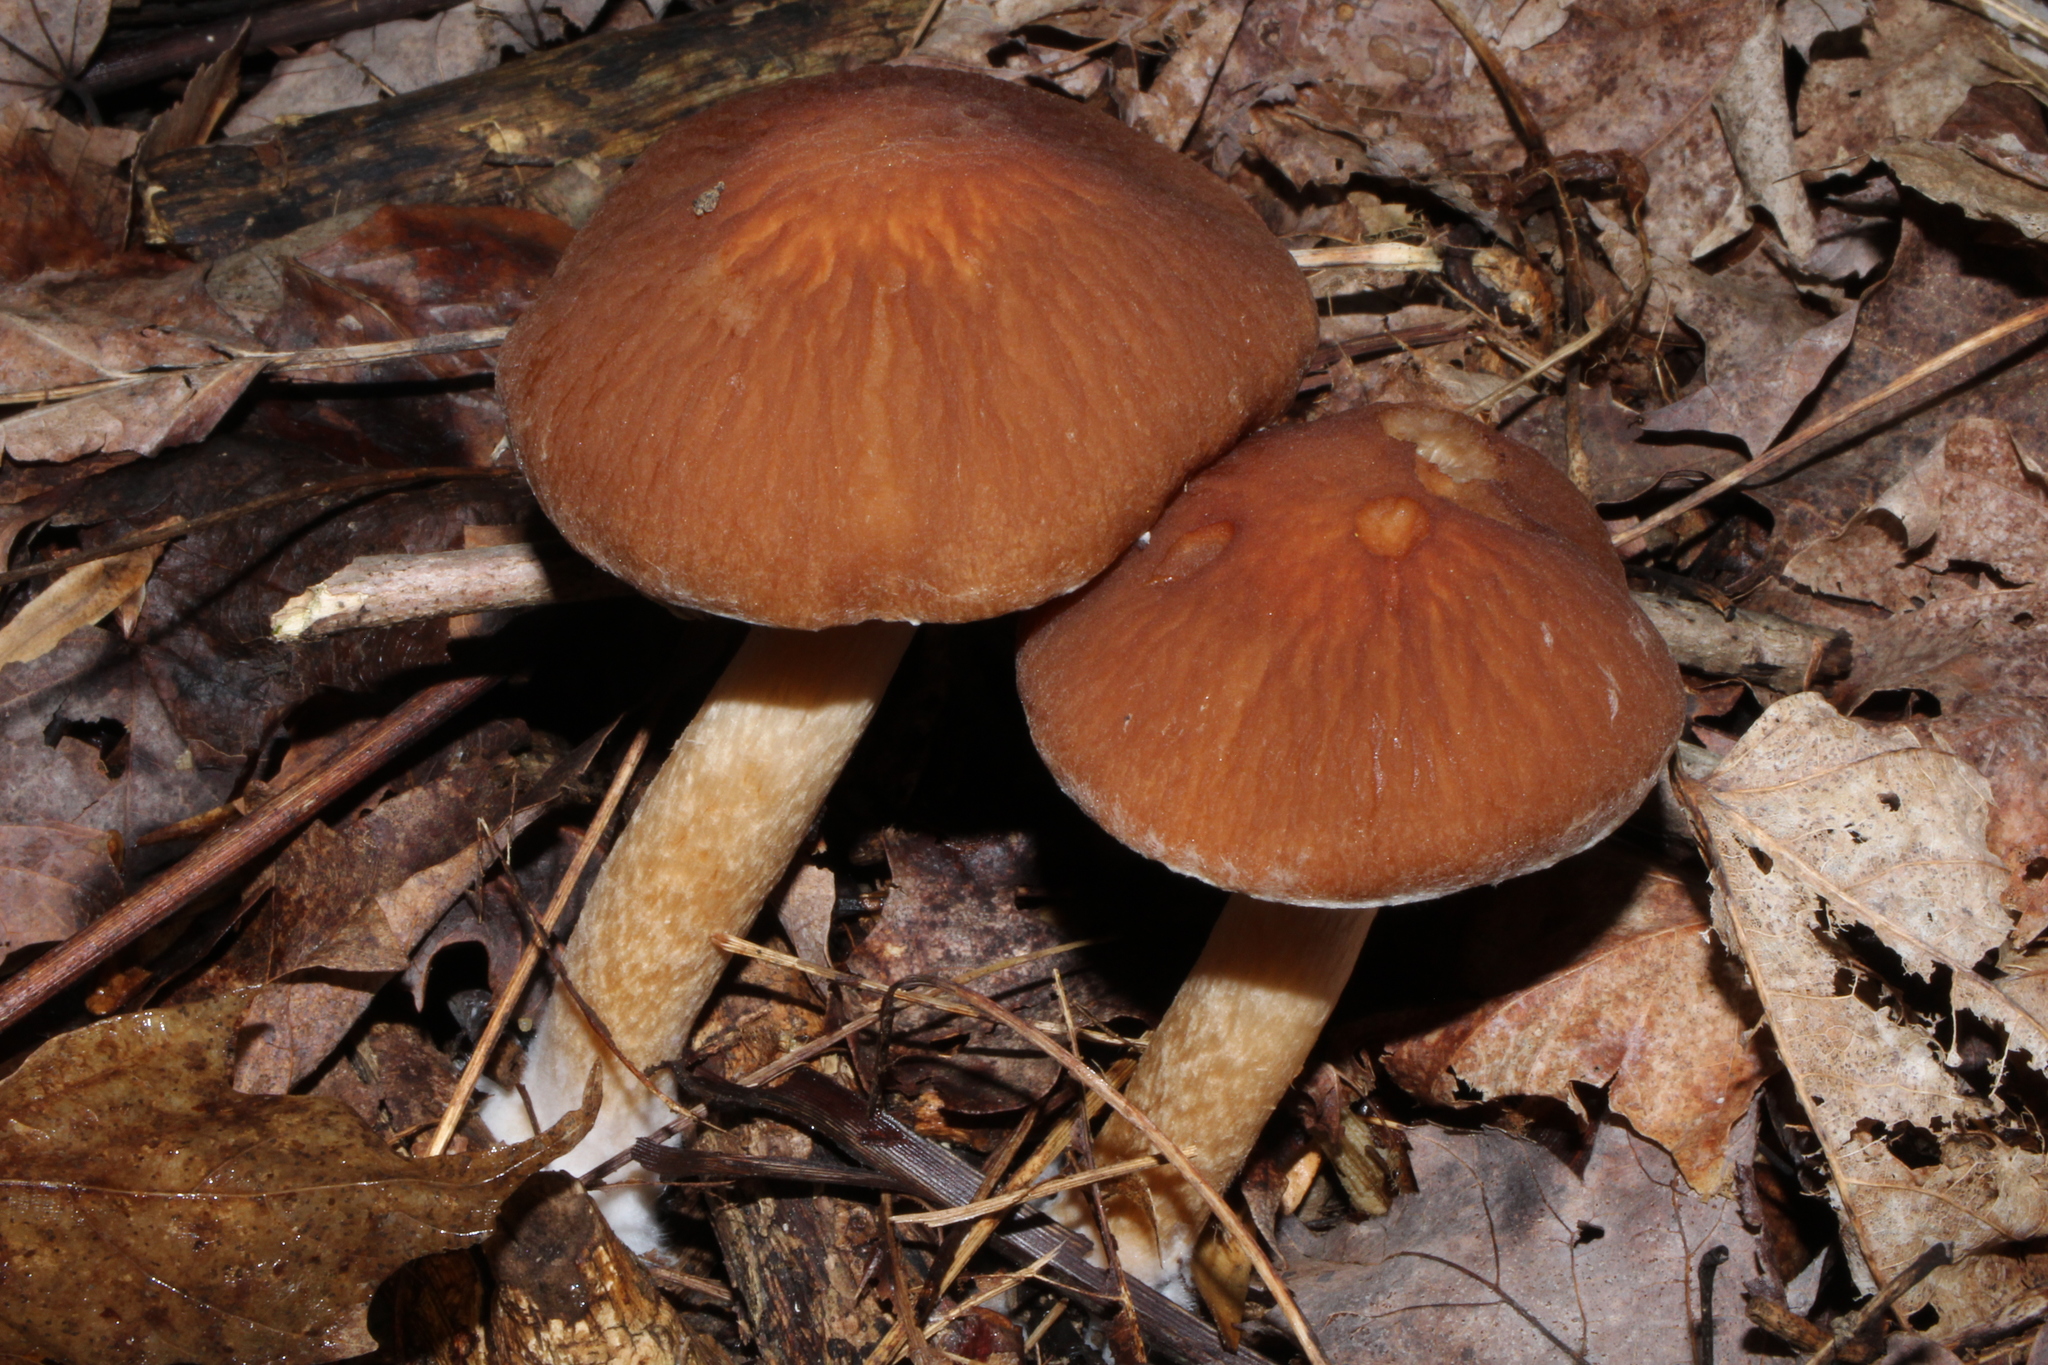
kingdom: Fungi
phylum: Basidiomycota
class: Agaricomycetes
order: Agaricales
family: Psathyrellaceae
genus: Typhrasa
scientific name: Typhrasa gossypina
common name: Wrinkled psathyrella
